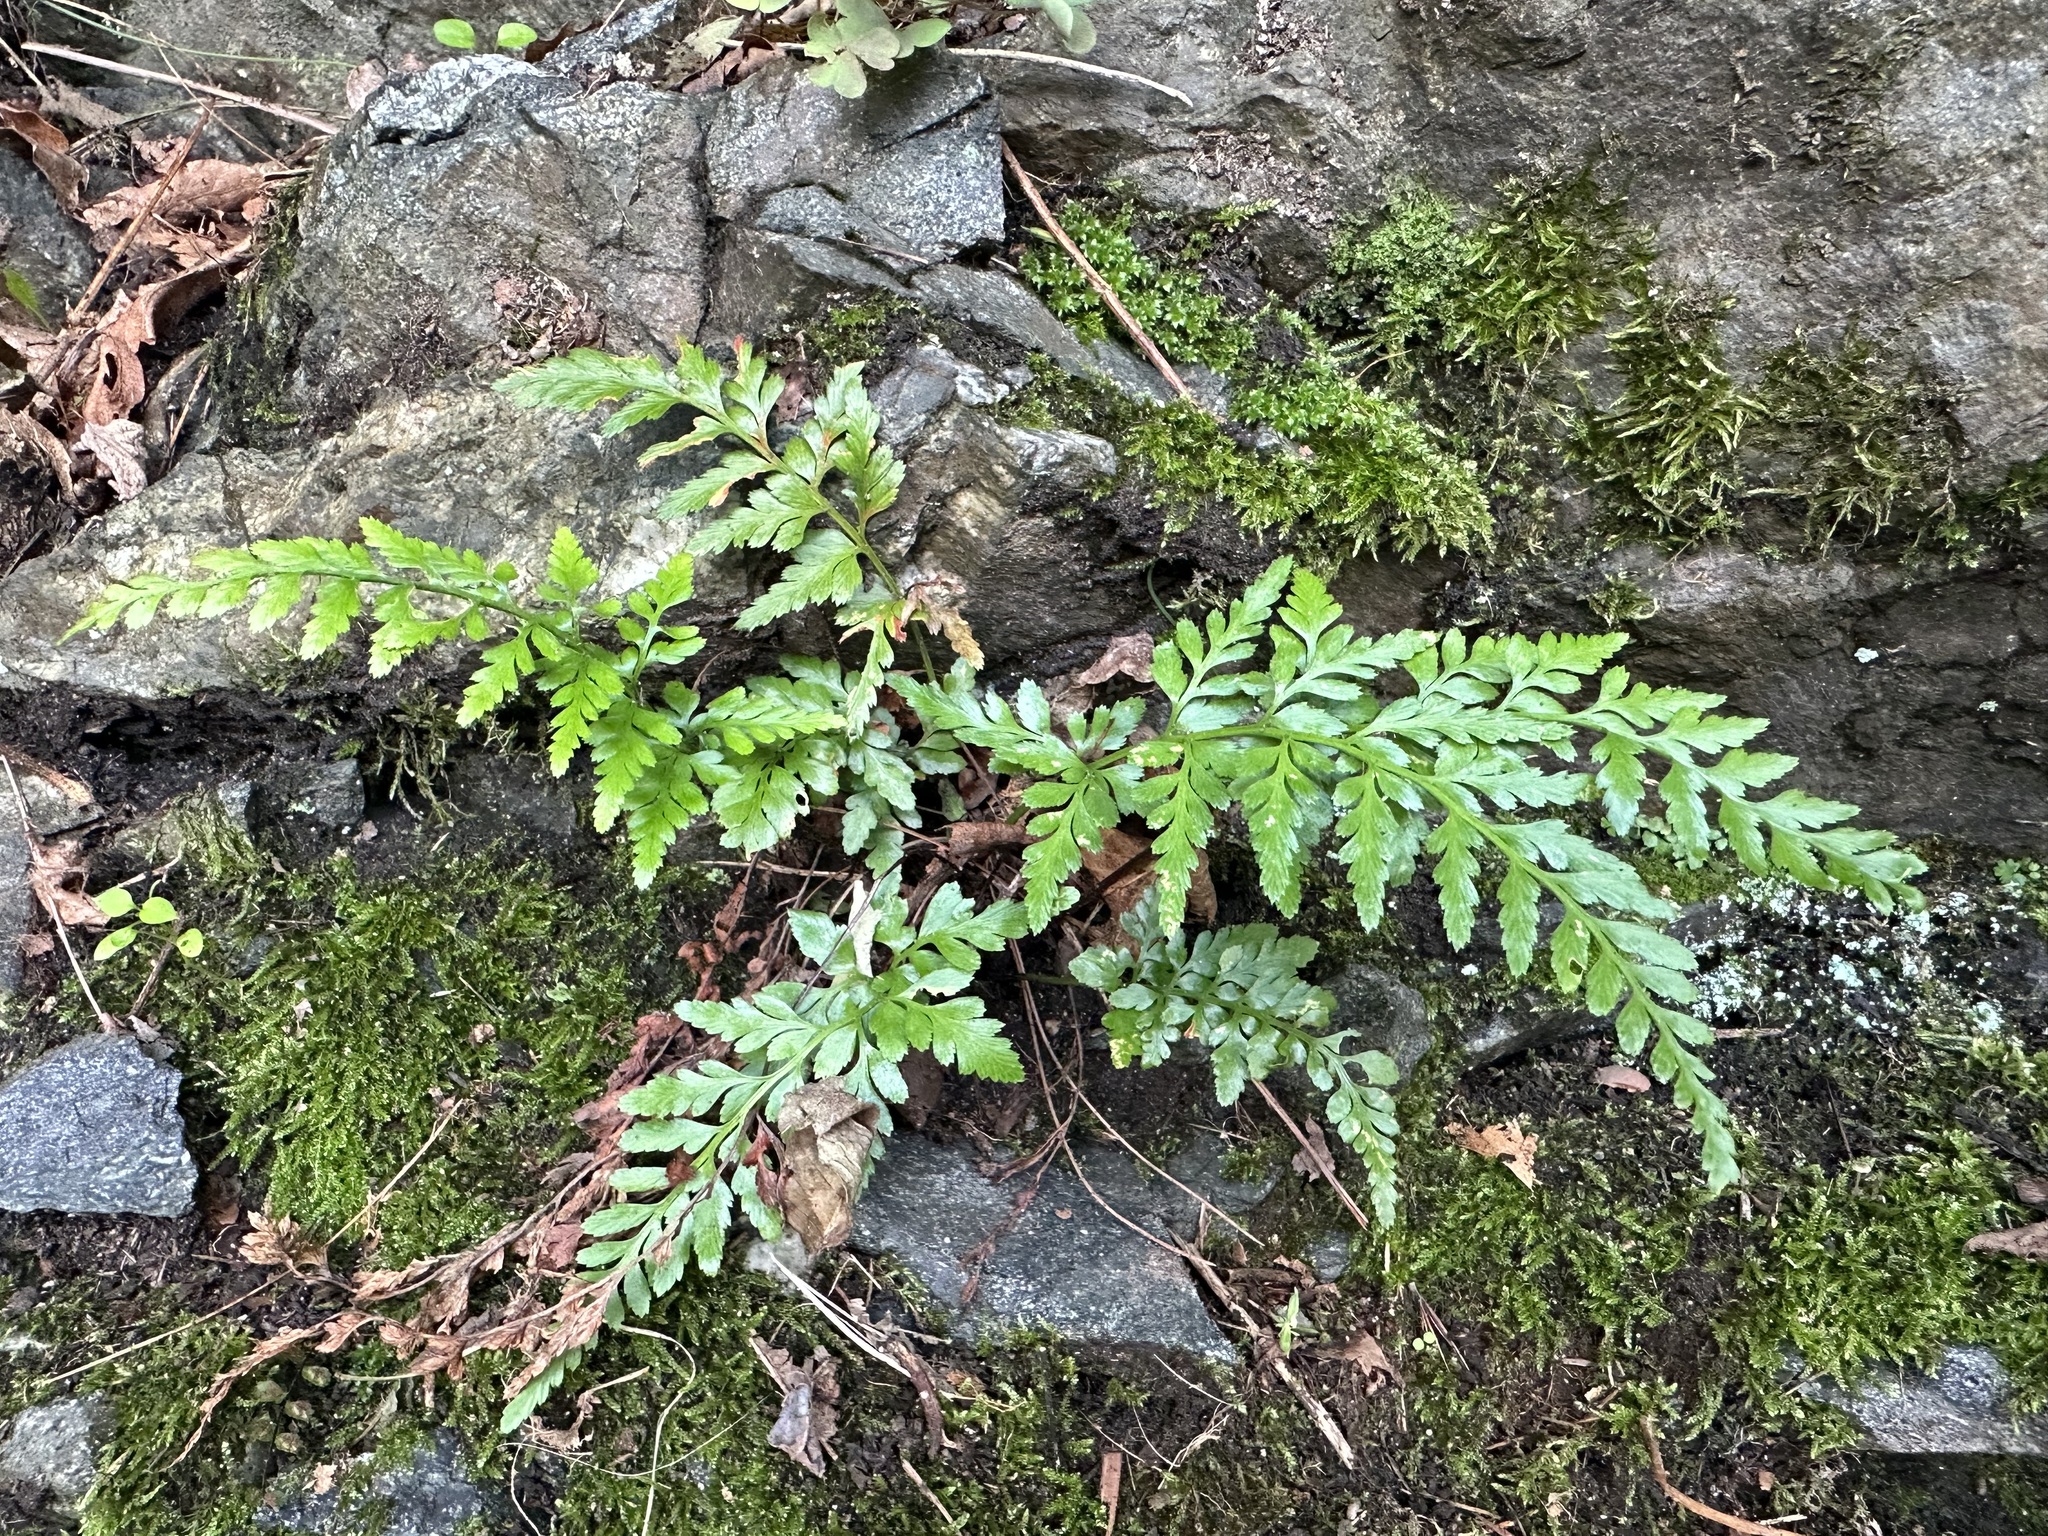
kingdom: Plantae
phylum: Tracheophyta
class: Polypodiopsida
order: Polypodiales
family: Aspleniaceae
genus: Asplenium
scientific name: Asplenium adiantum-nigrum
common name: Black spleenwort
